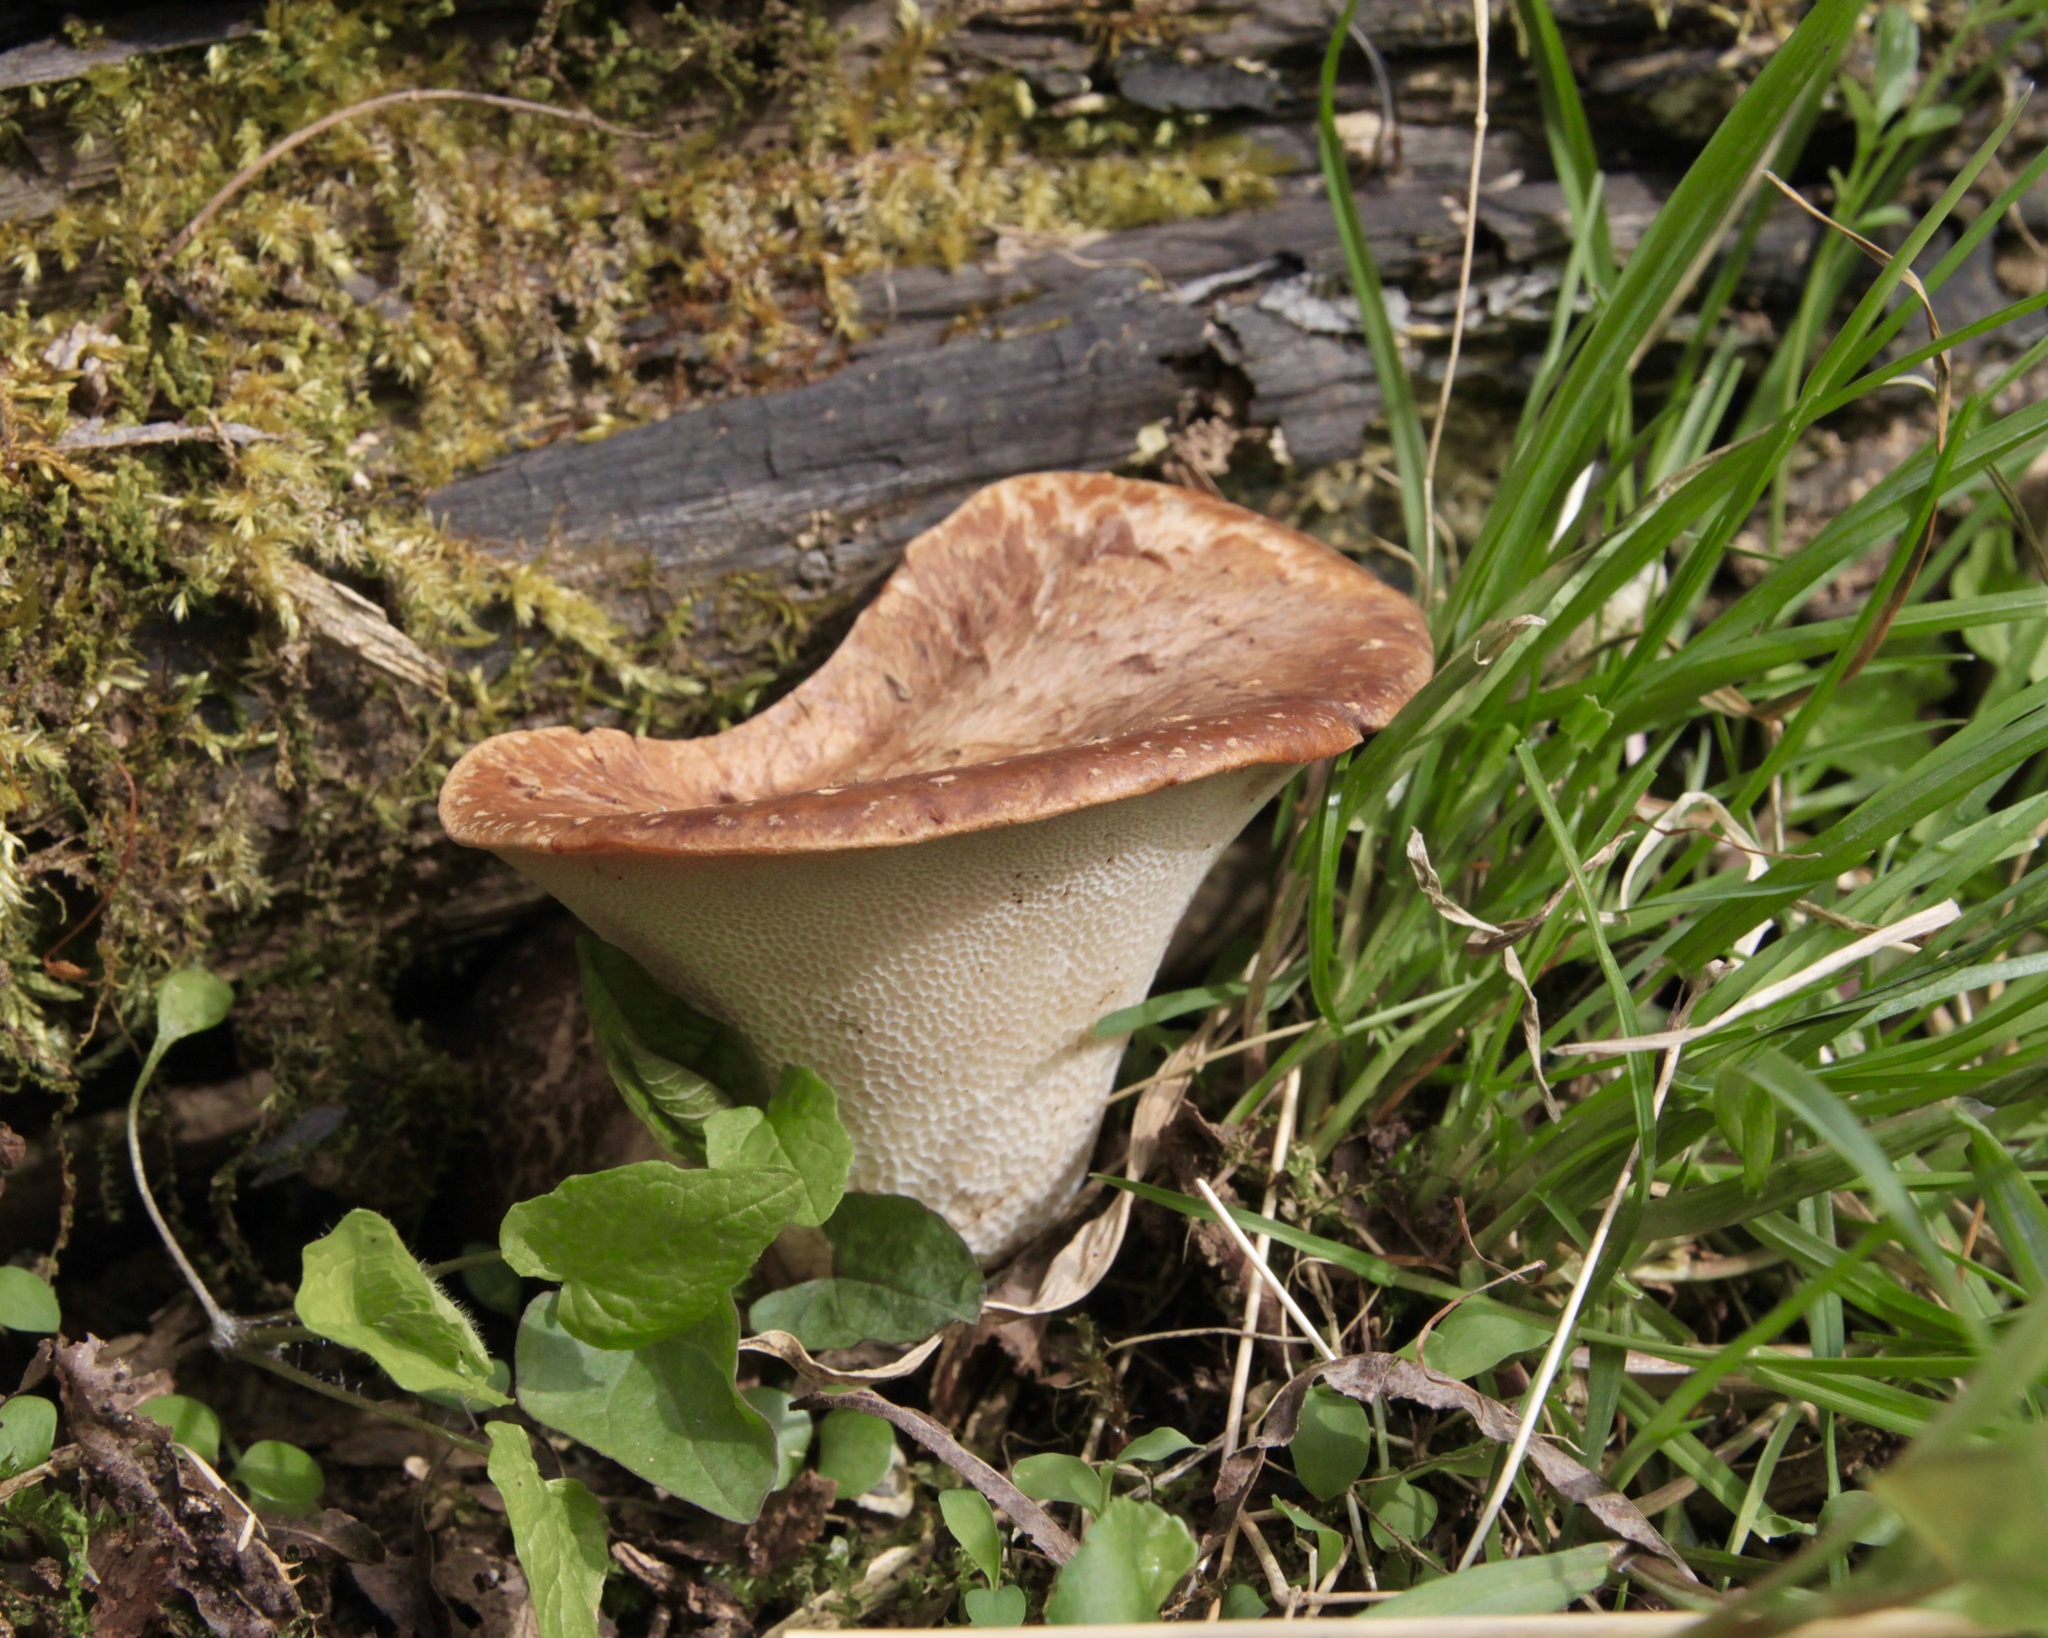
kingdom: Fungi
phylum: Basidiomycota
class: Agaricomycetes
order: Polyporales
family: Polyporaceae
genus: Cerioporus
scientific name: Cerioporus squamosus
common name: Dryad's saddle
